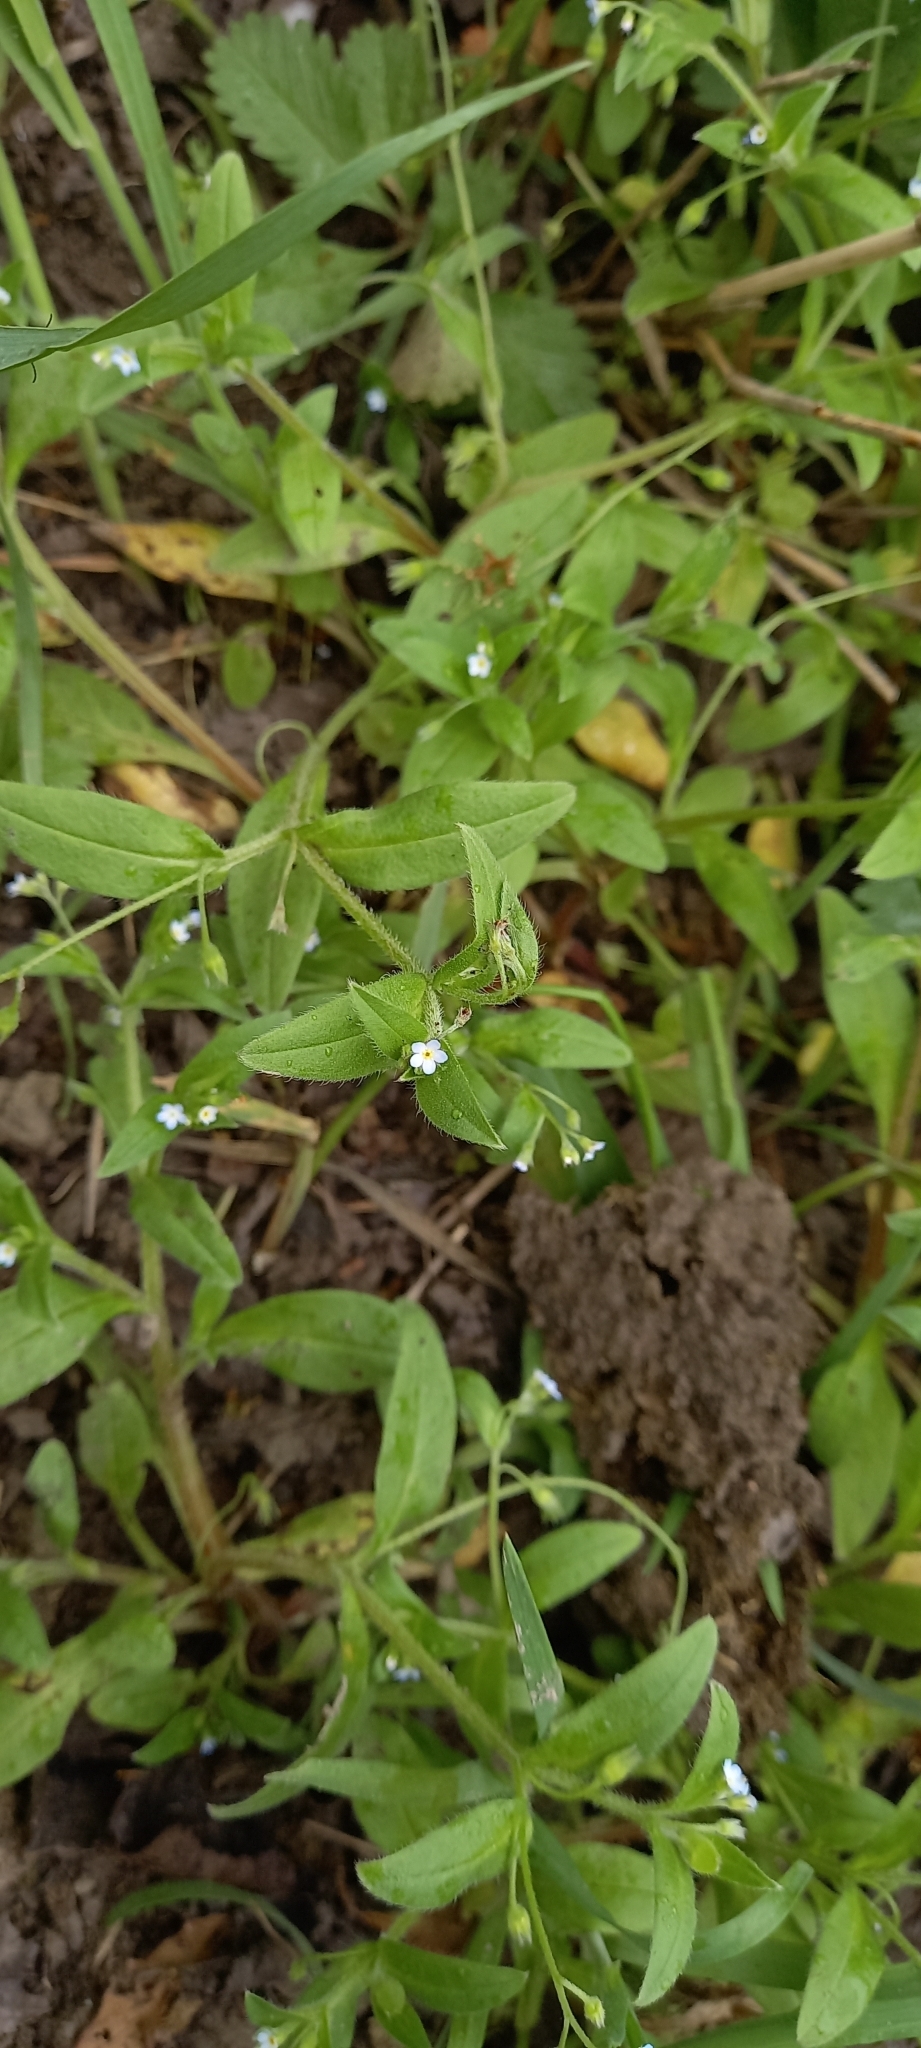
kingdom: Plantae
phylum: Tracheophyta
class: Magnoliopsida
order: Boraginales
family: Boraginaceae
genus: Myosotis
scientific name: Myosotis sparsiflora
